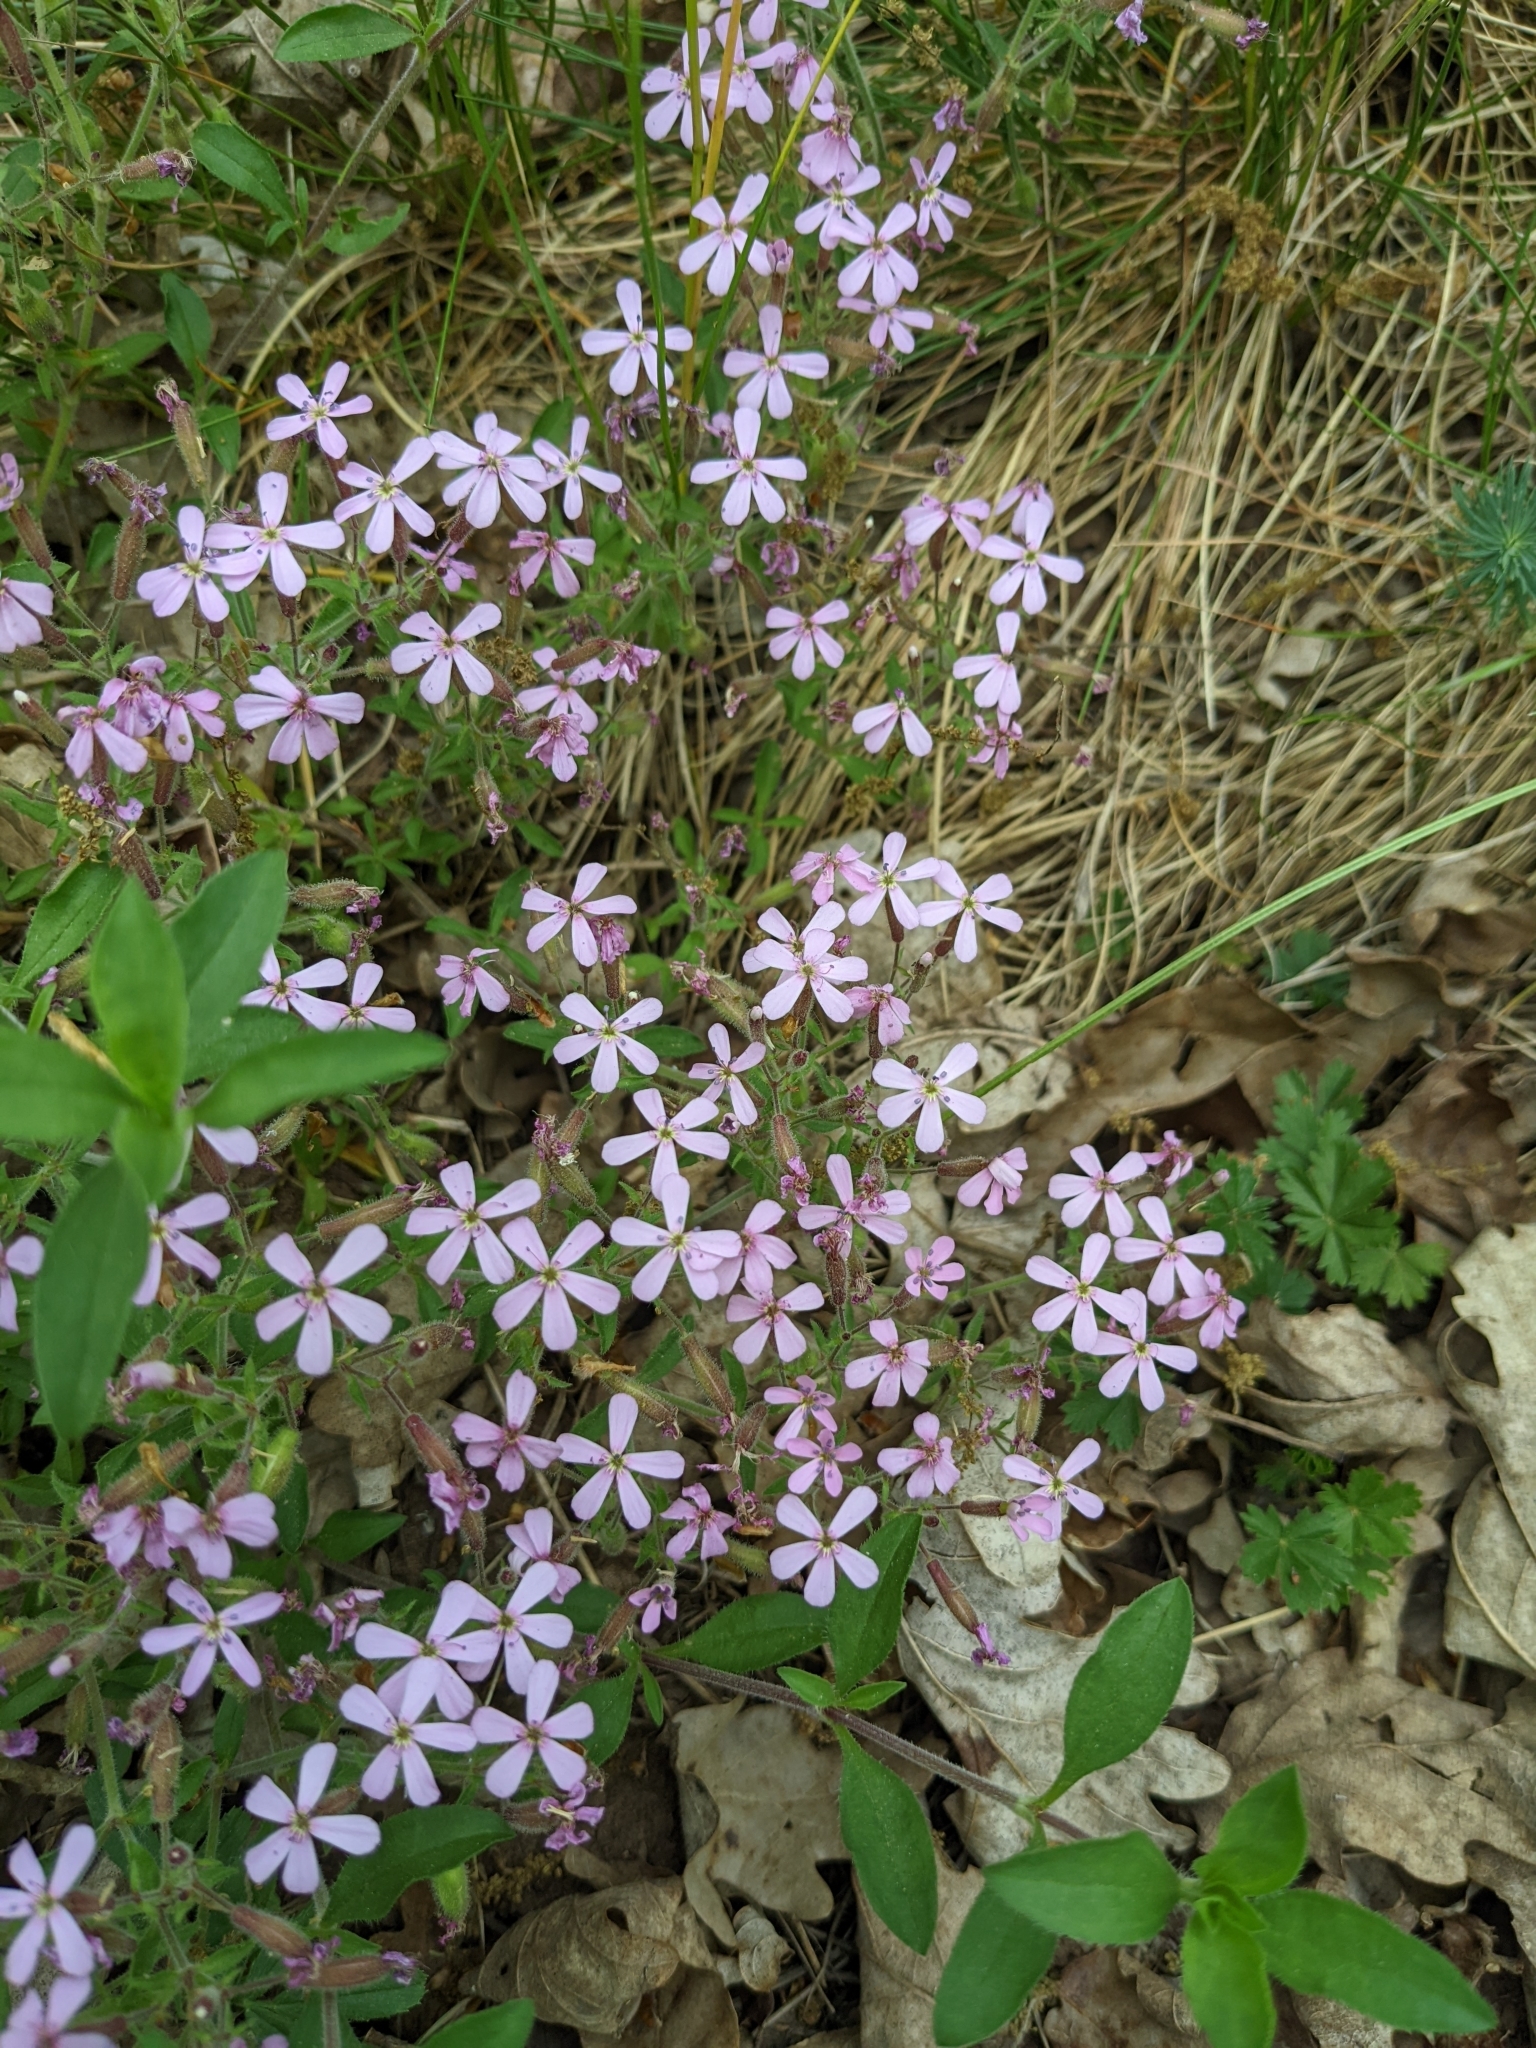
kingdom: Plantae
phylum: Tracheophyta
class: Magnoliopsida
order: Caryophyllales
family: Caryophyllaceae
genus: Saponaria
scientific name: Saponaria ocymoides
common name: Rock soapwort
